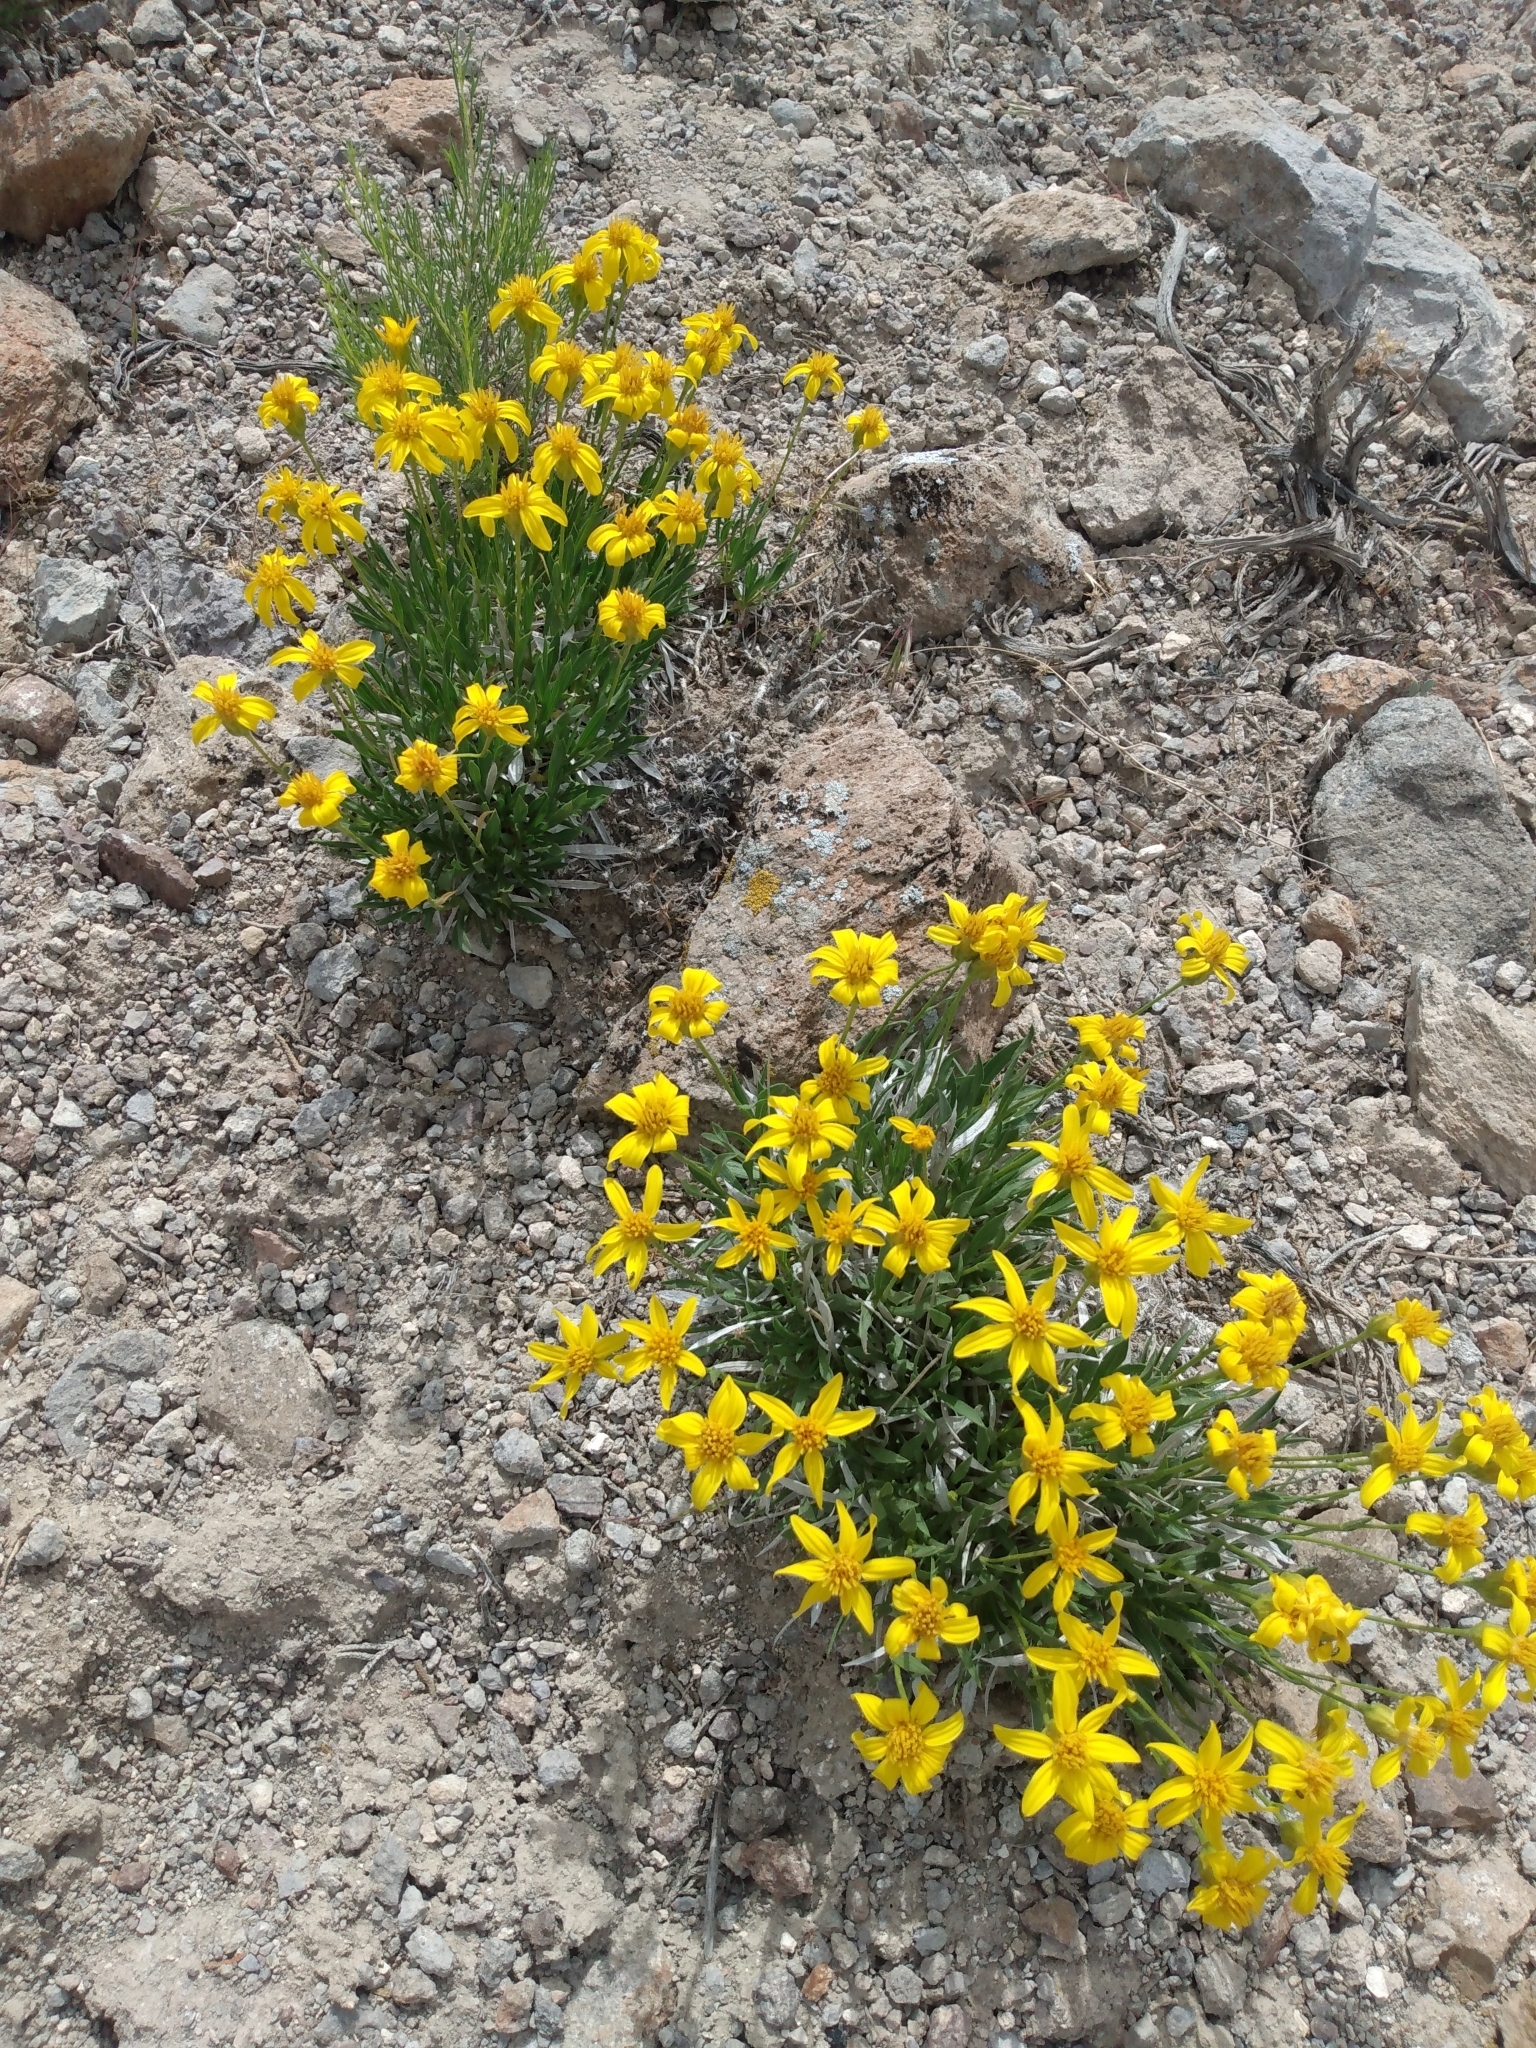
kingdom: Plantae
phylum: Tracheophyta
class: Magnoliopsida
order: Asterales
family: Asteraceae
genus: Stenotus
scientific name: Stenotus acaulis
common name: Stemless goldenweed
